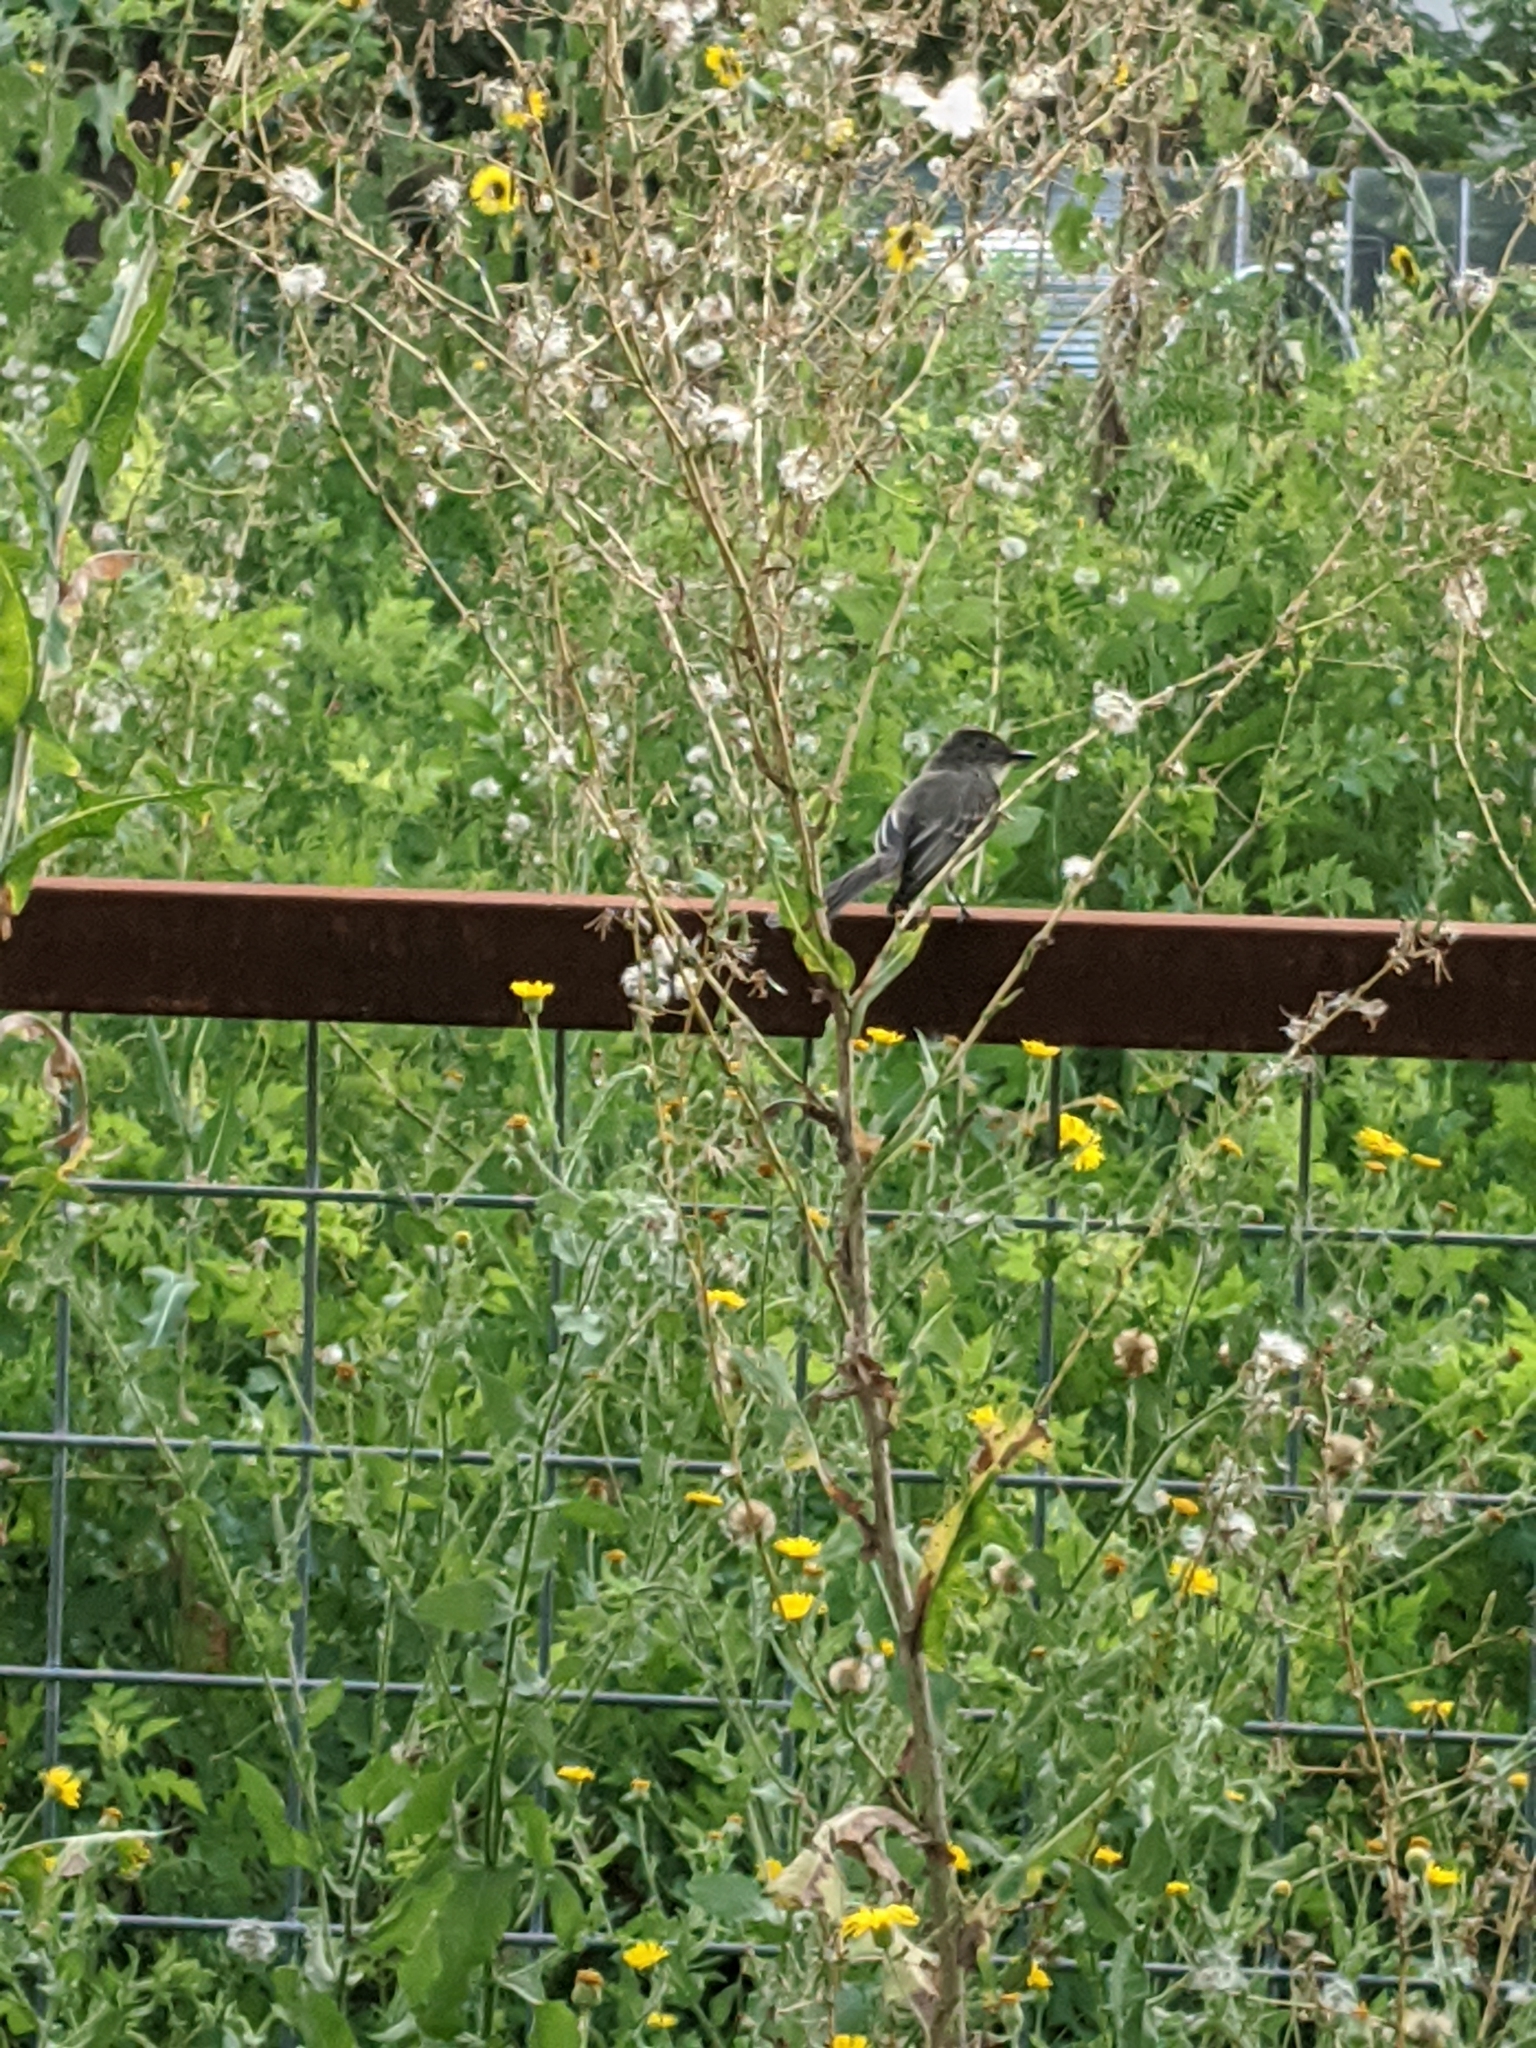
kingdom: Animalia
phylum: Chordata
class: Aves
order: Passeriformes
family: Tyrannidae
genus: Sayornis
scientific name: Sayornis phoebe
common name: Eastern phoebe
